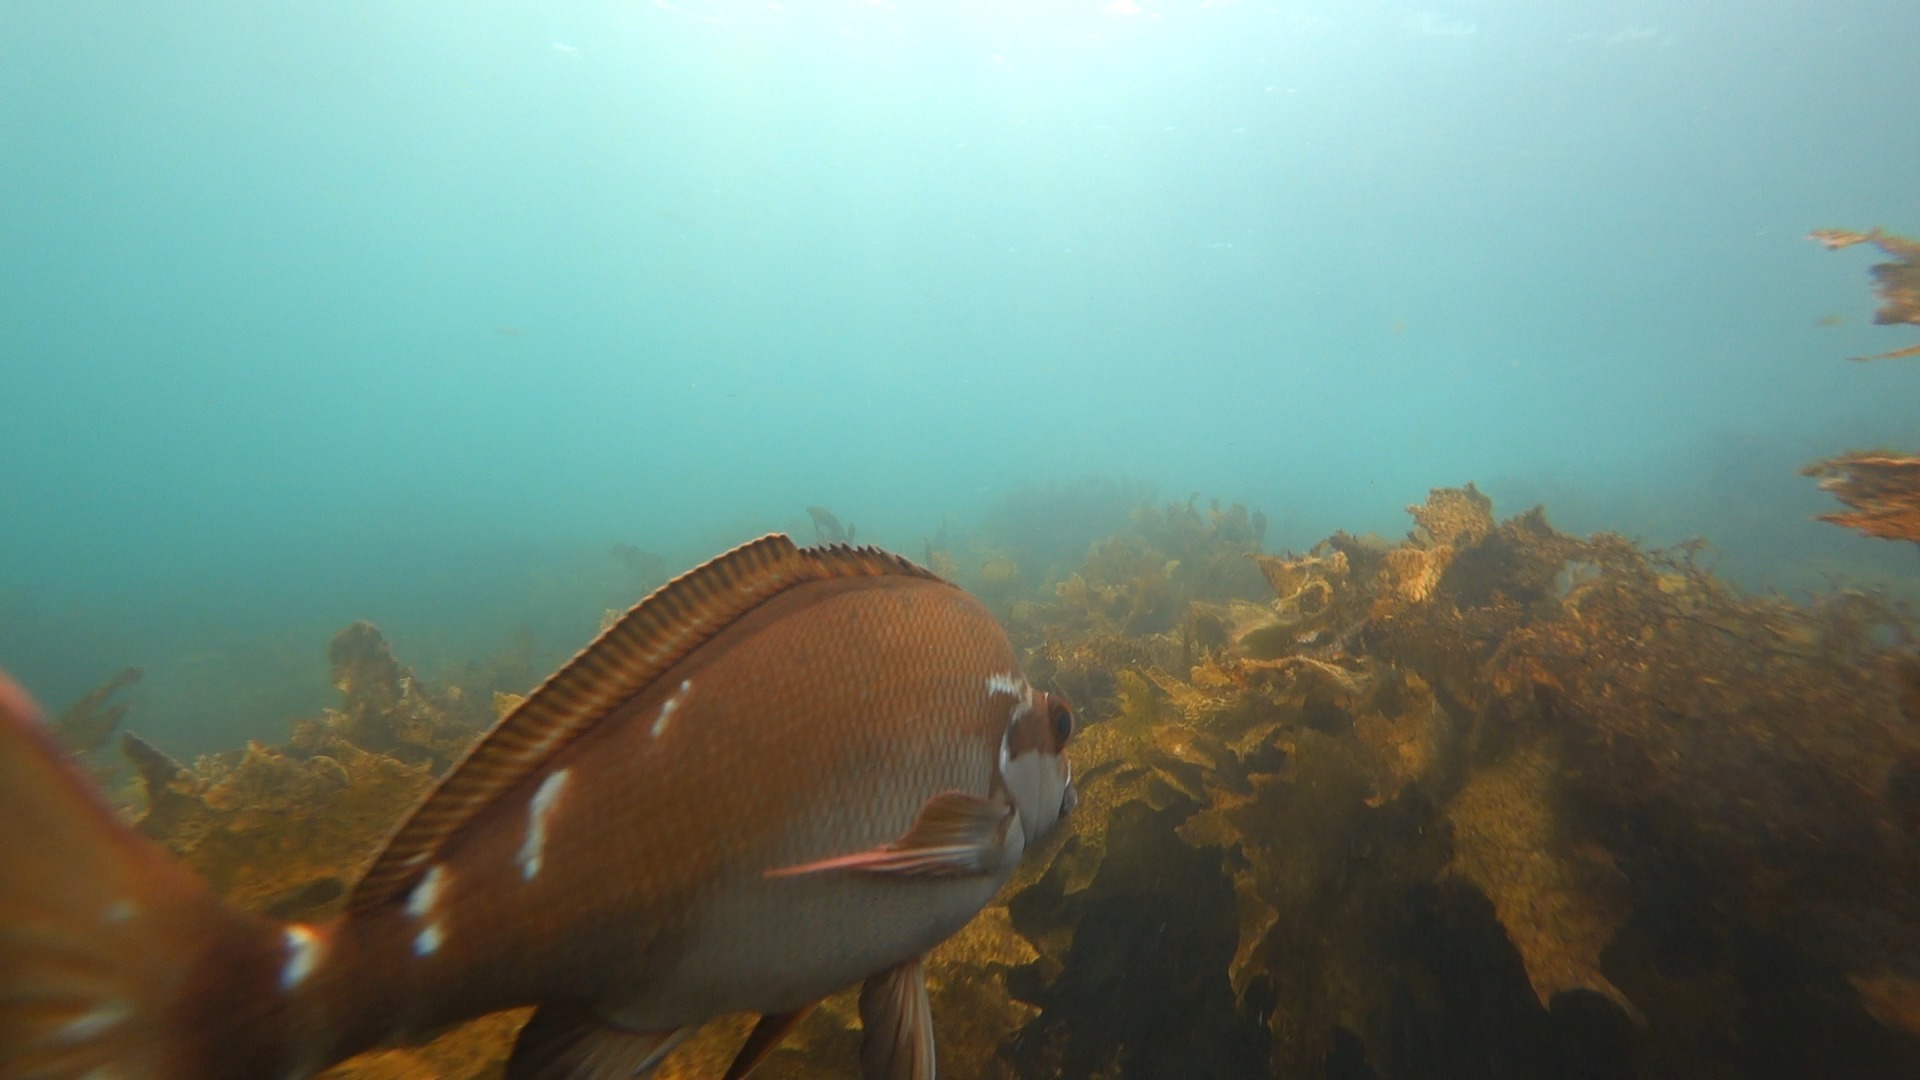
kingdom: Animalia
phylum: Chordata
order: Perciformes
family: Latridae
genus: Morwong
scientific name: Morwong fuscus
